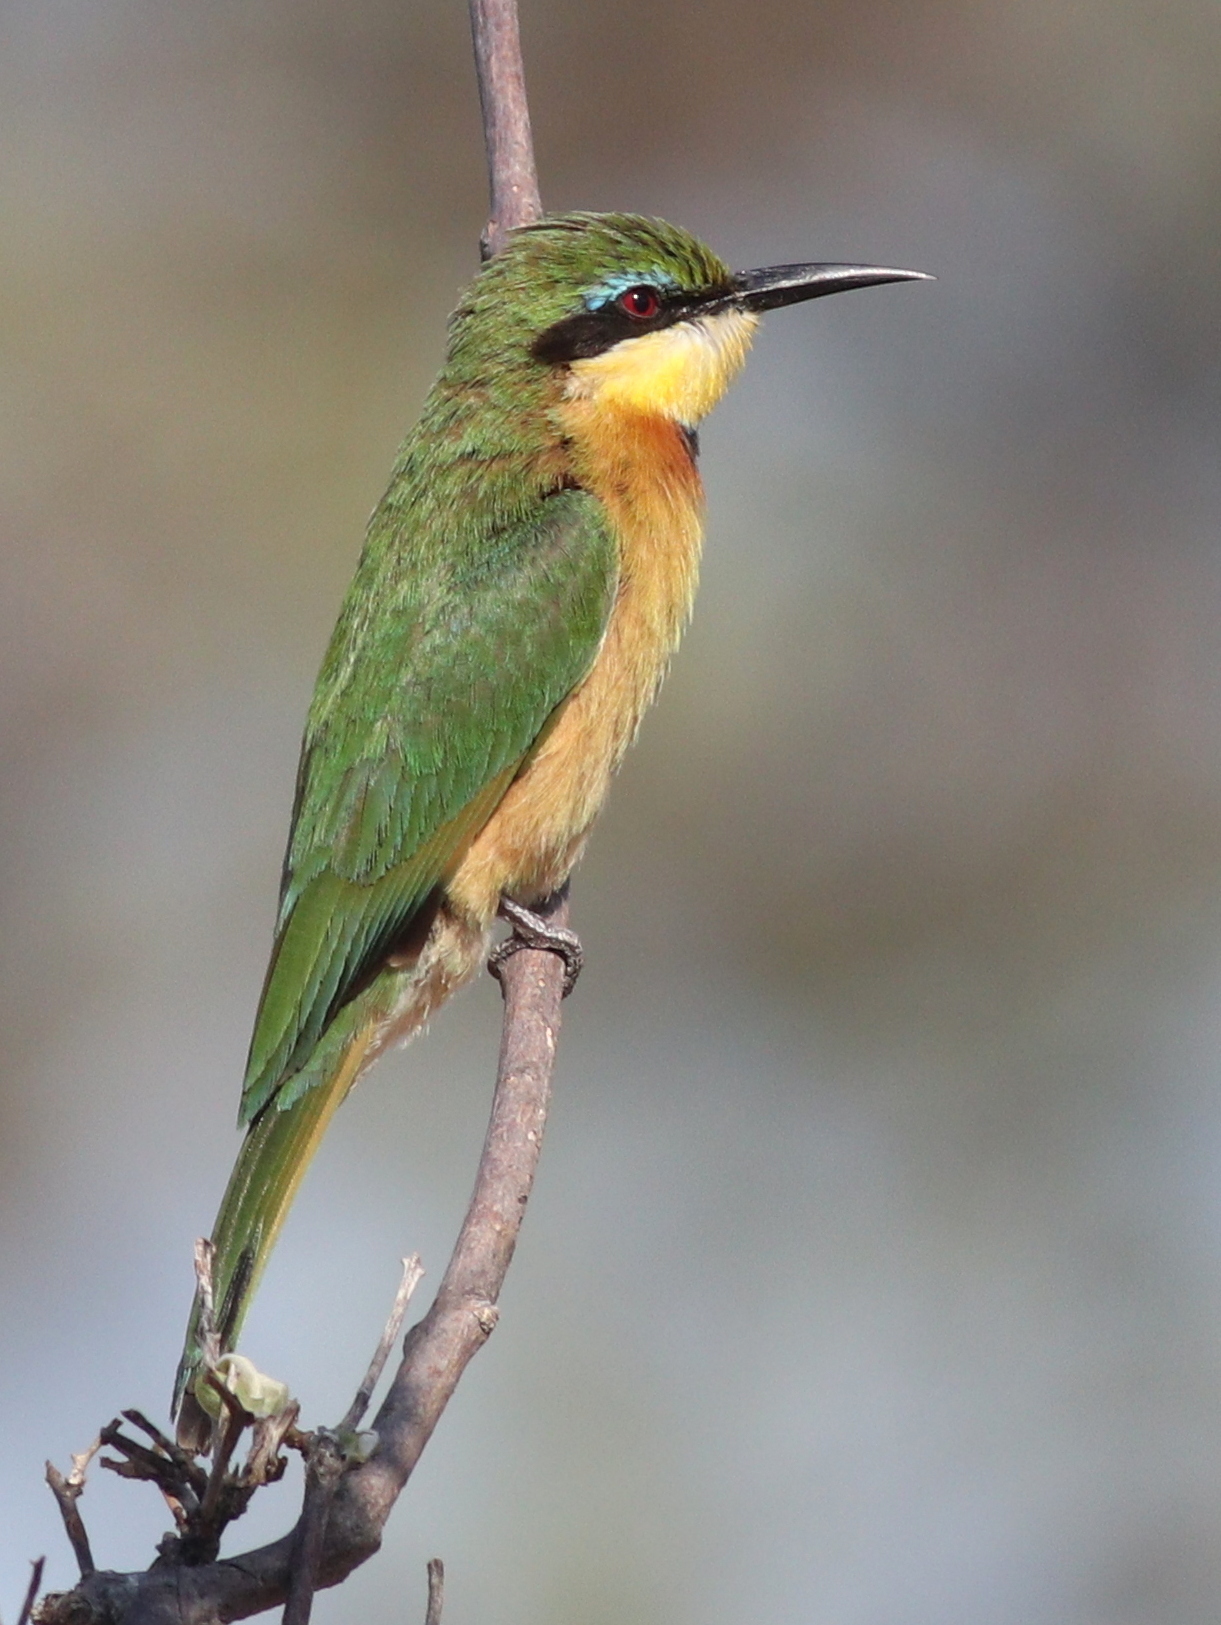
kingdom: Animalia
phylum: Chordata
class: Aves
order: Coraciiformes
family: Meropidae
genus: Merops
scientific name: Merops pusillus
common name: Little bee-eater
